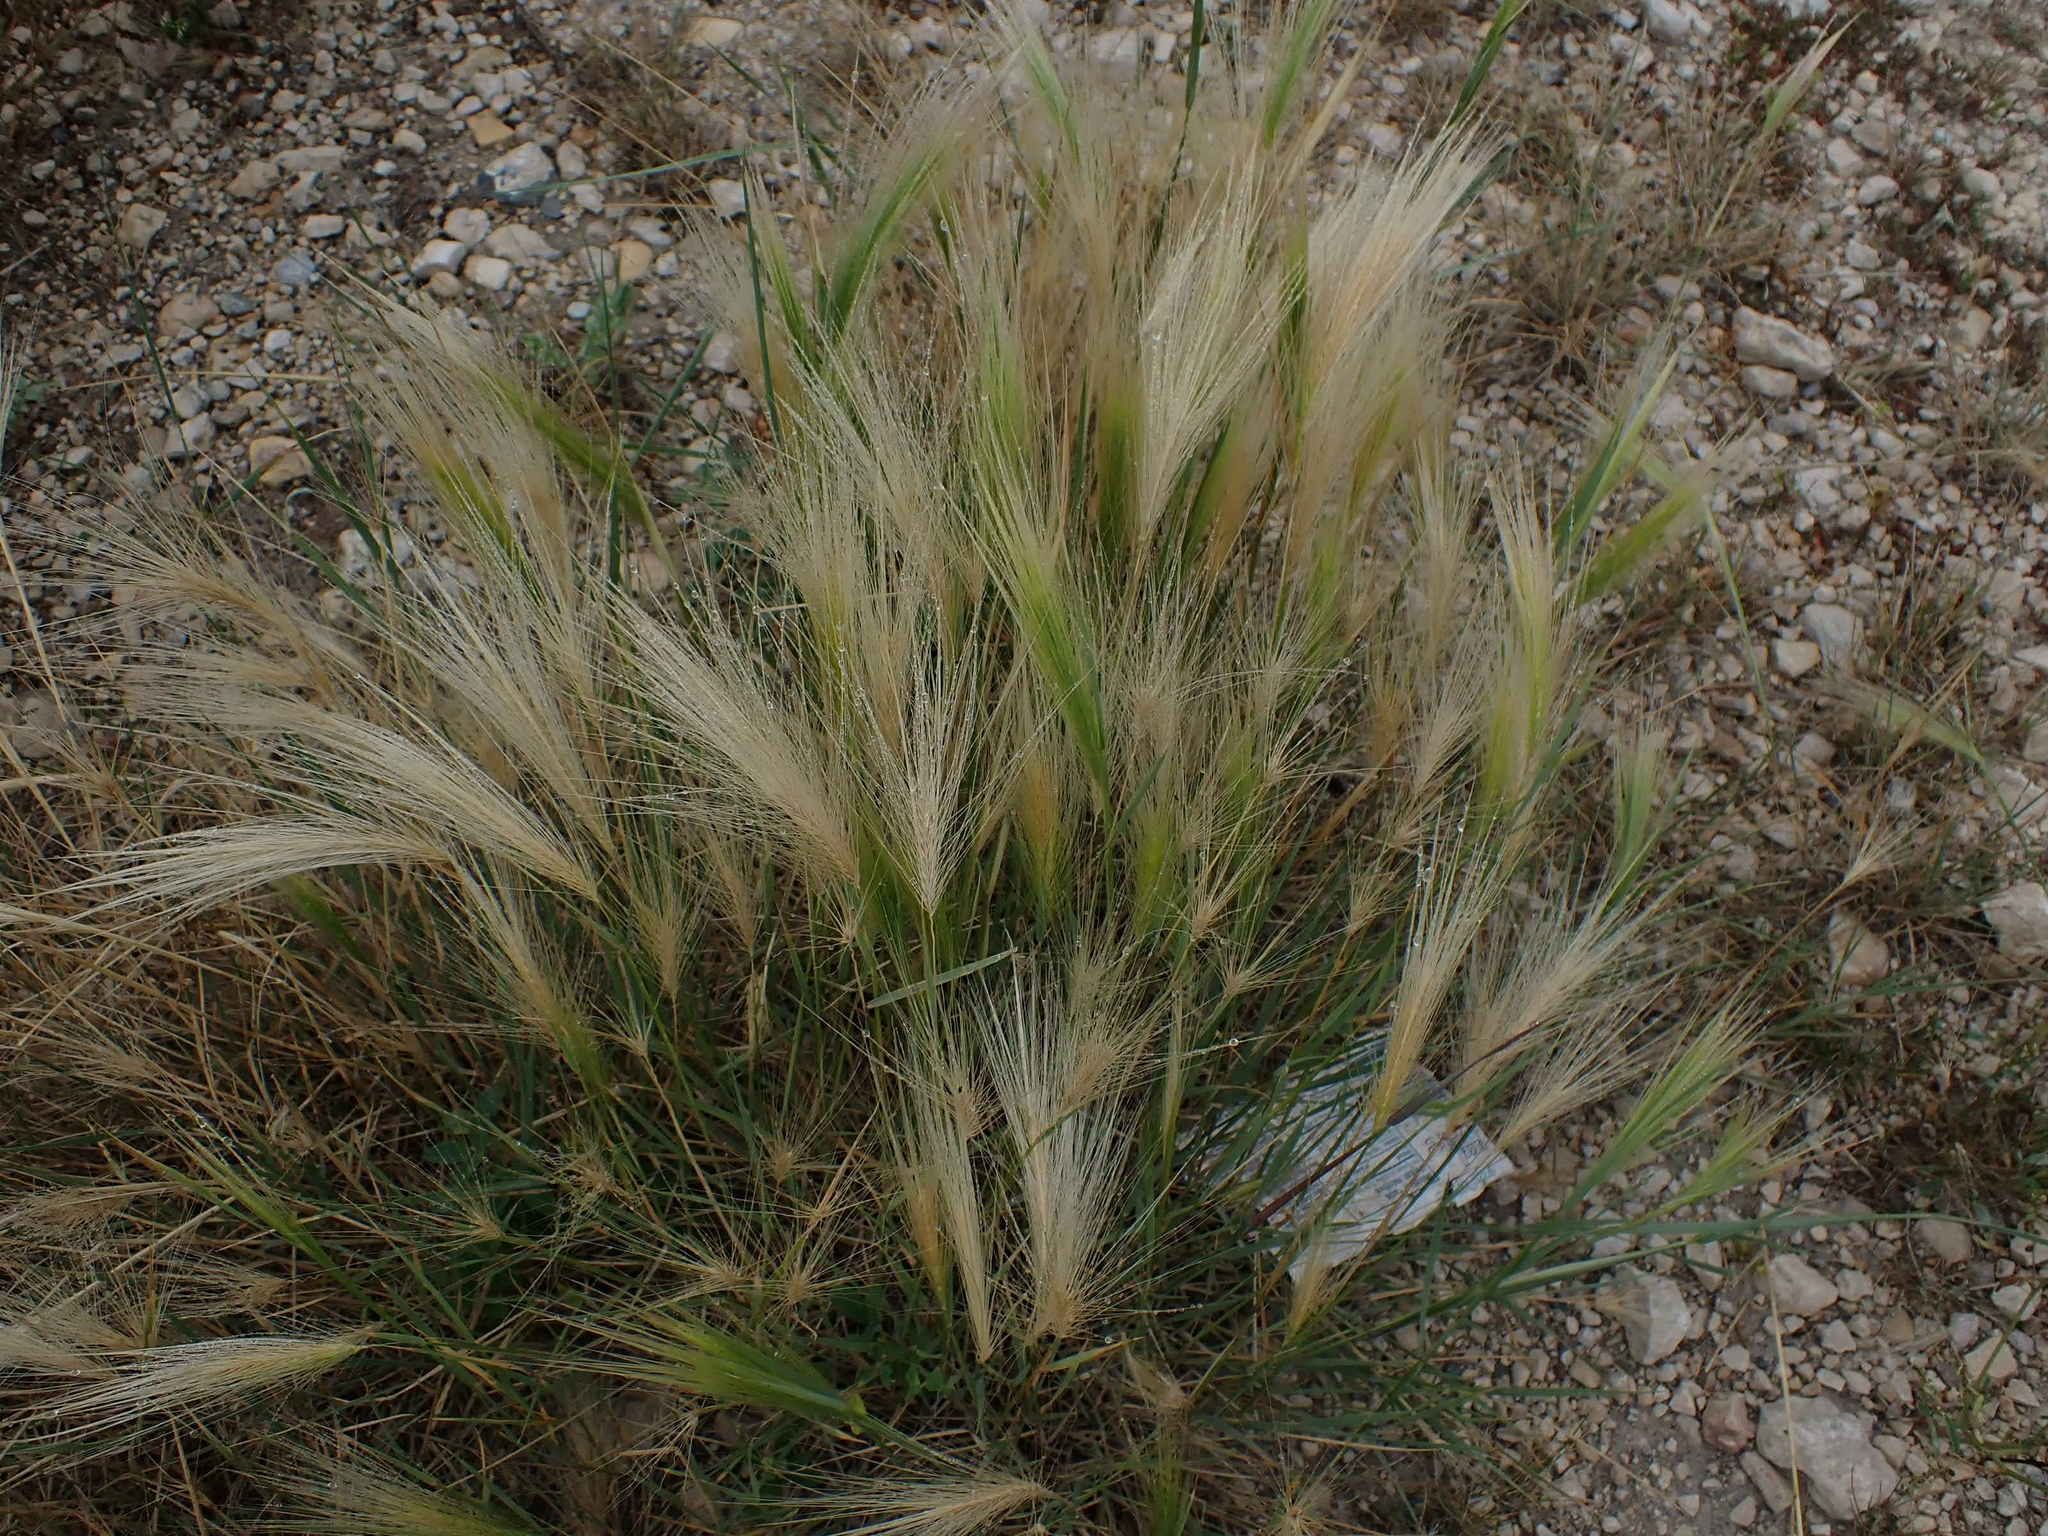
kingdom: Plantae
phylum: Tracheophyta
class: Liliopsida
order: Poales
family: Poaceae
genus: Hordeum
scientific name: Hordeum jubatum
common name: Foxtail barley
